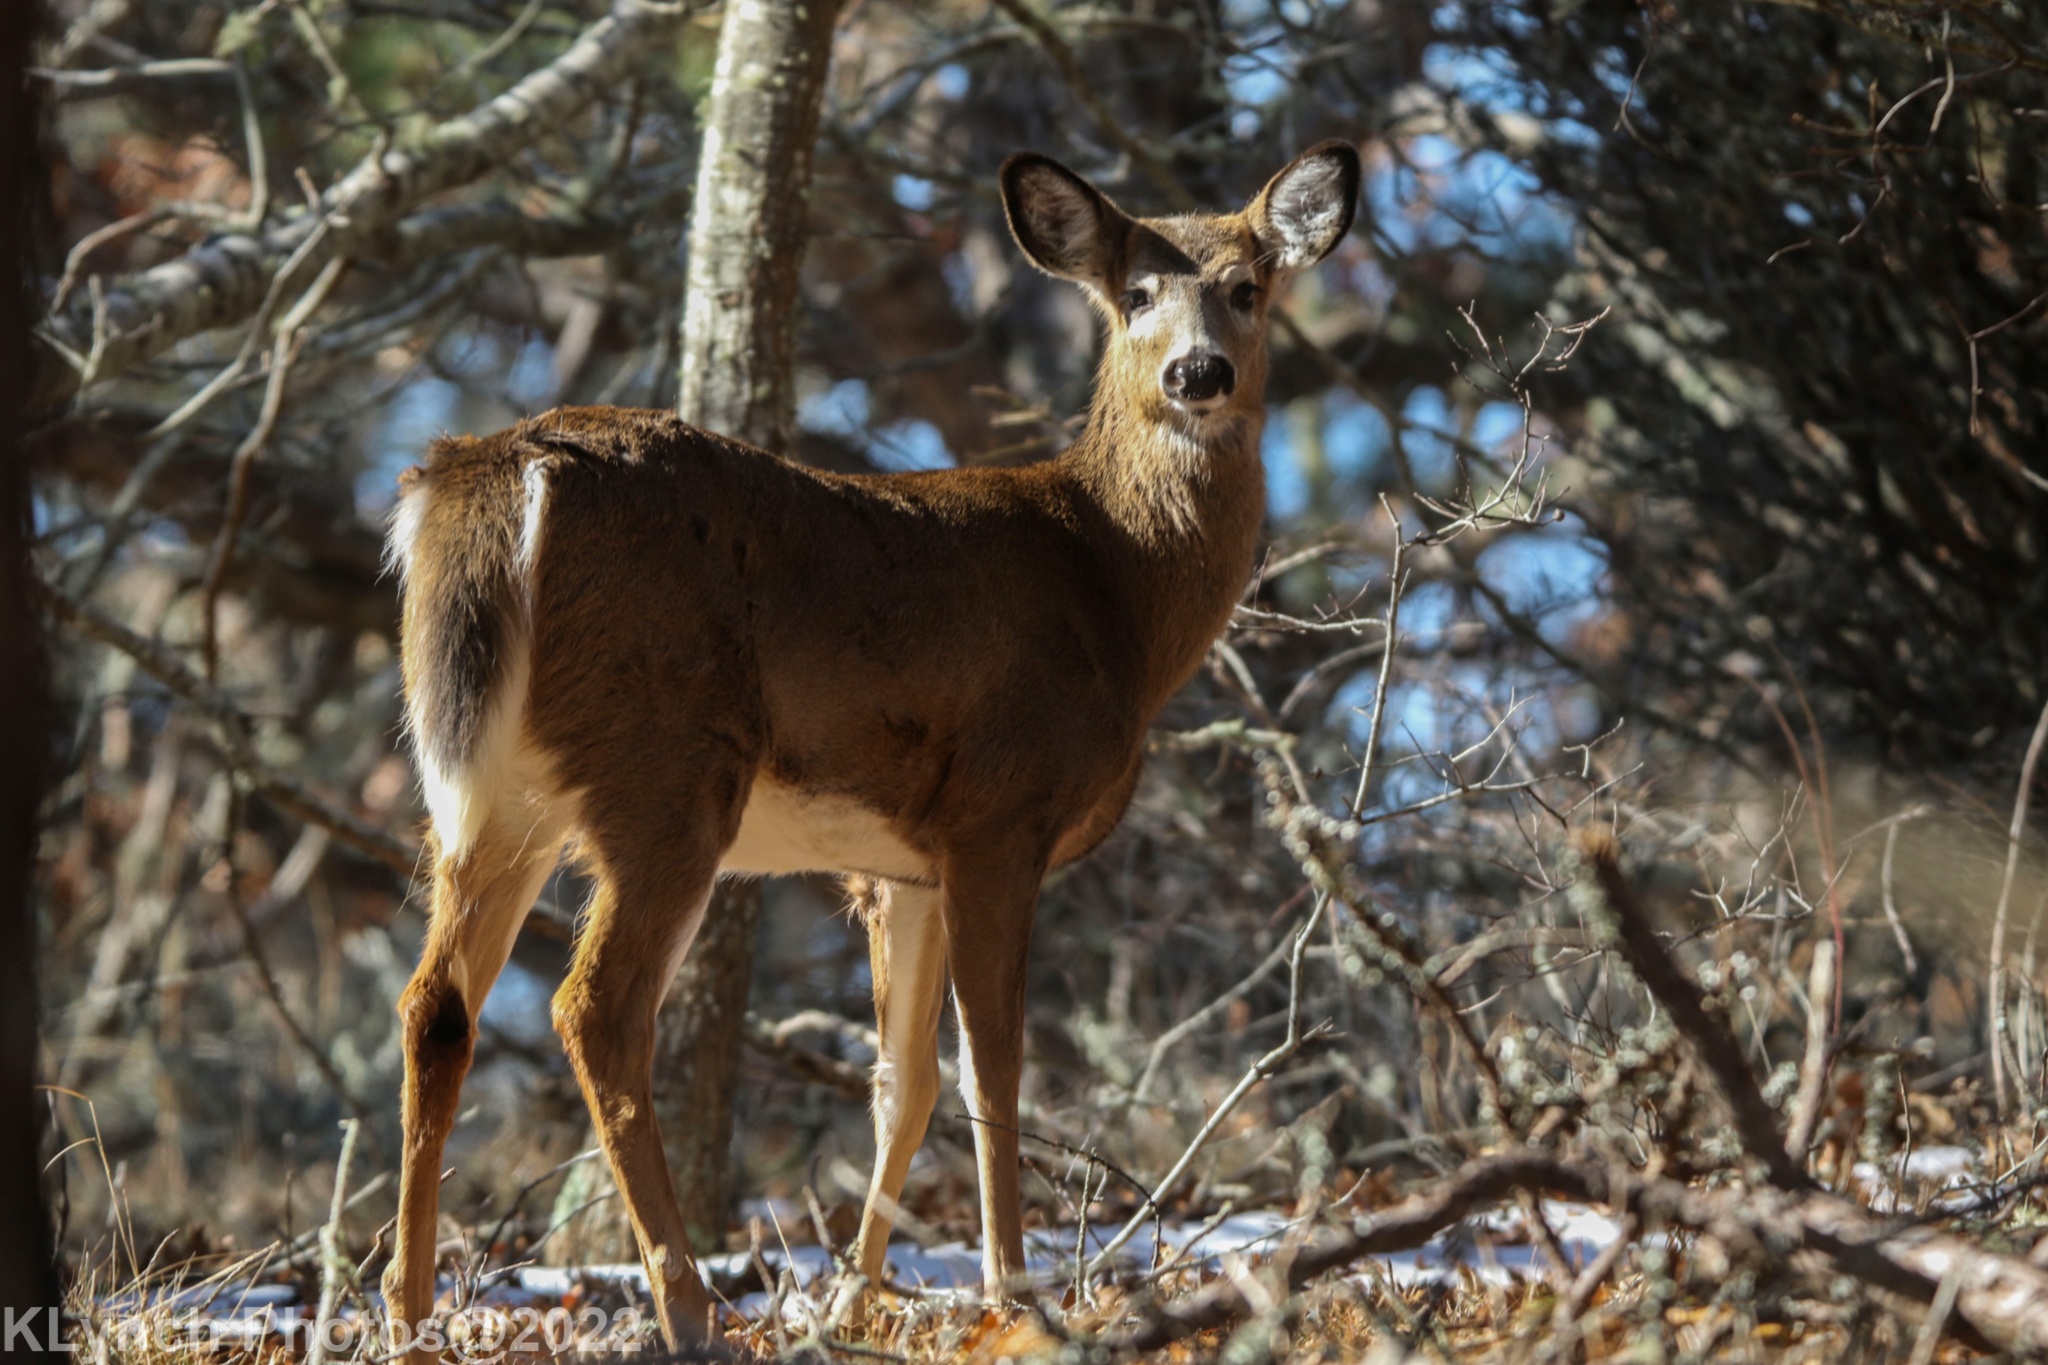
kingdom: Animalia
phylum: Chordata
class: Mammalia
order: Artiodactyla
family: Cervidae
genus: Odocoileus
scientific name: Odocoileus virginianus
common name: White-tailed deer
